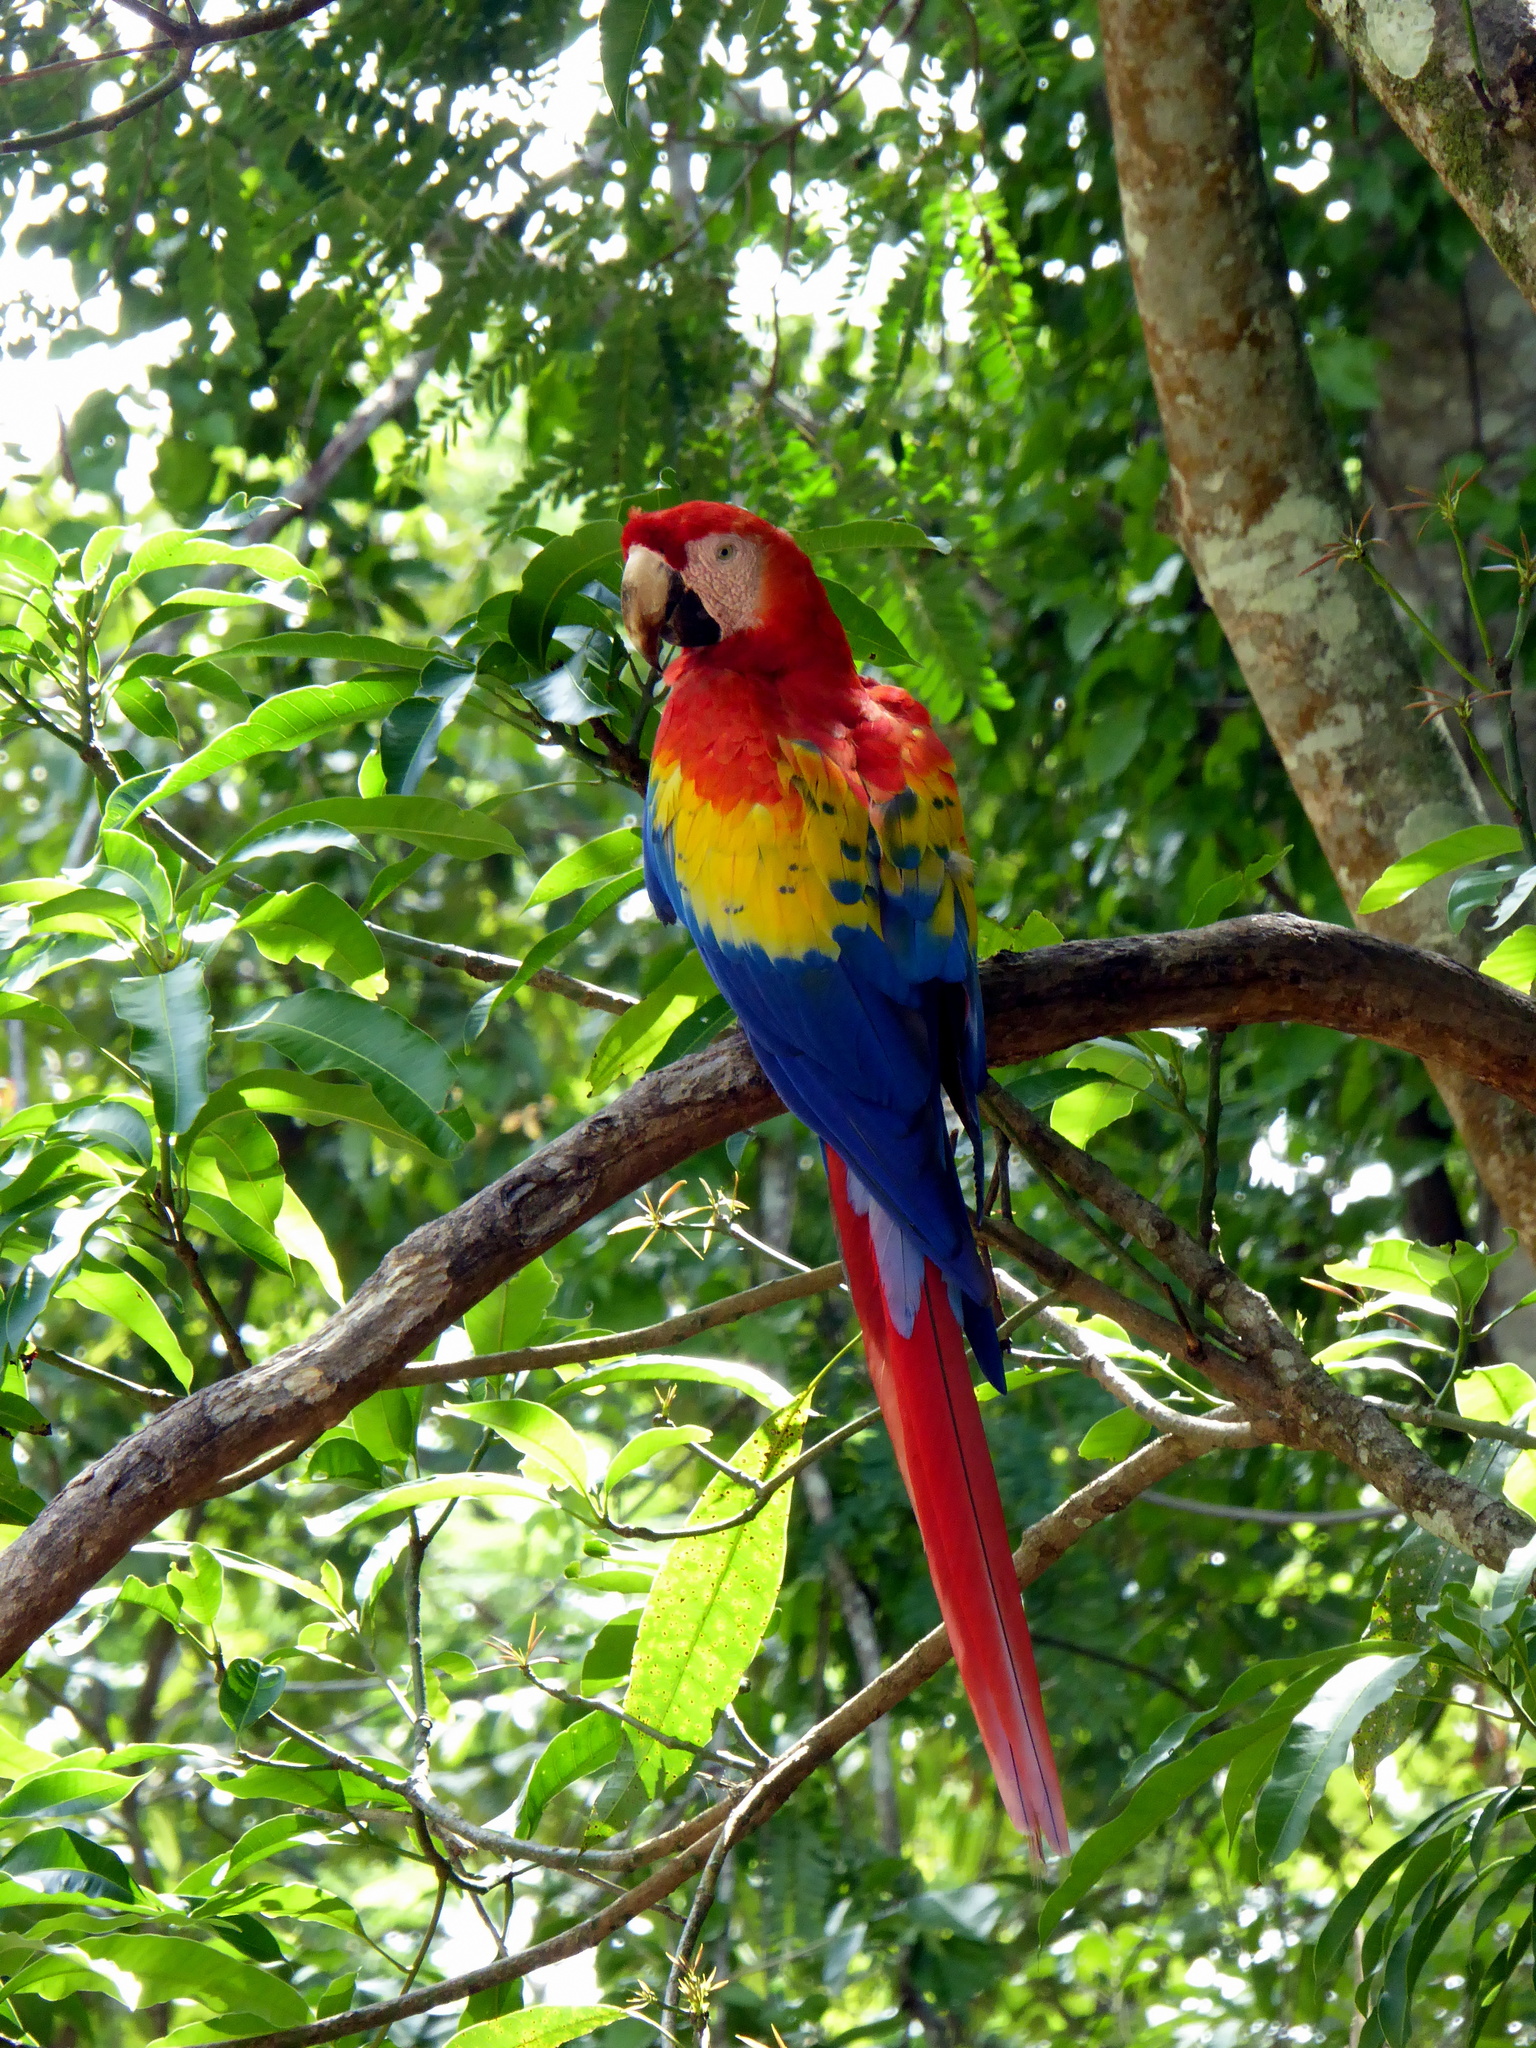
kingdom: Animalia
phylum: Chordata
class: Aves
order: Psittaciformes
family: Psittacidae
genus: Ara
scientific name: Ara macao
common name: Scarlet macaw
